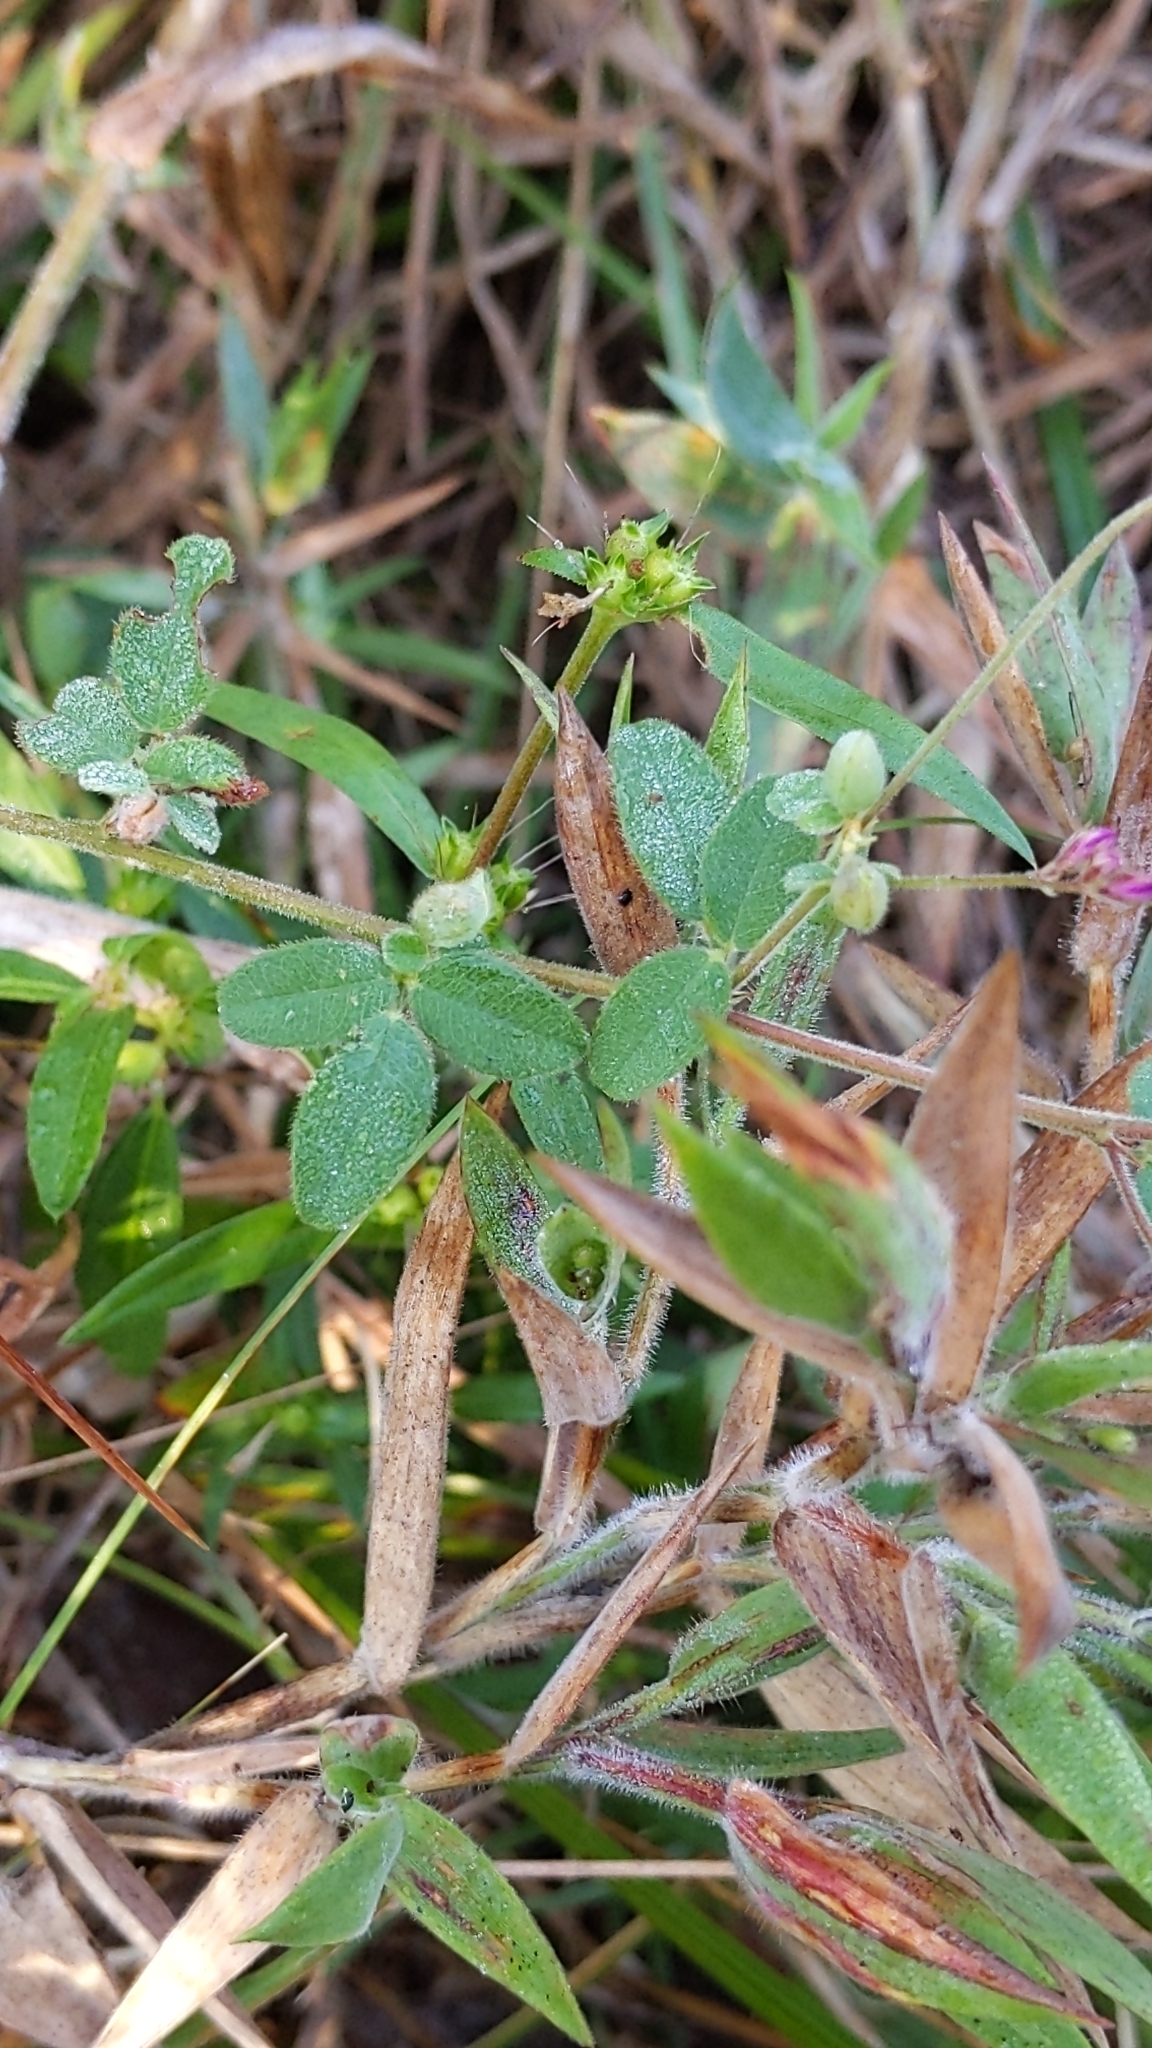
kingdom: Plantae
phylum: Tracheophyta
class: Magnoliopsida
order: Fabales
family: Fabaceae
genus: Lespedeza
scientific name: Lespedeza procumbens
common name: Downy trailing bush-clover
